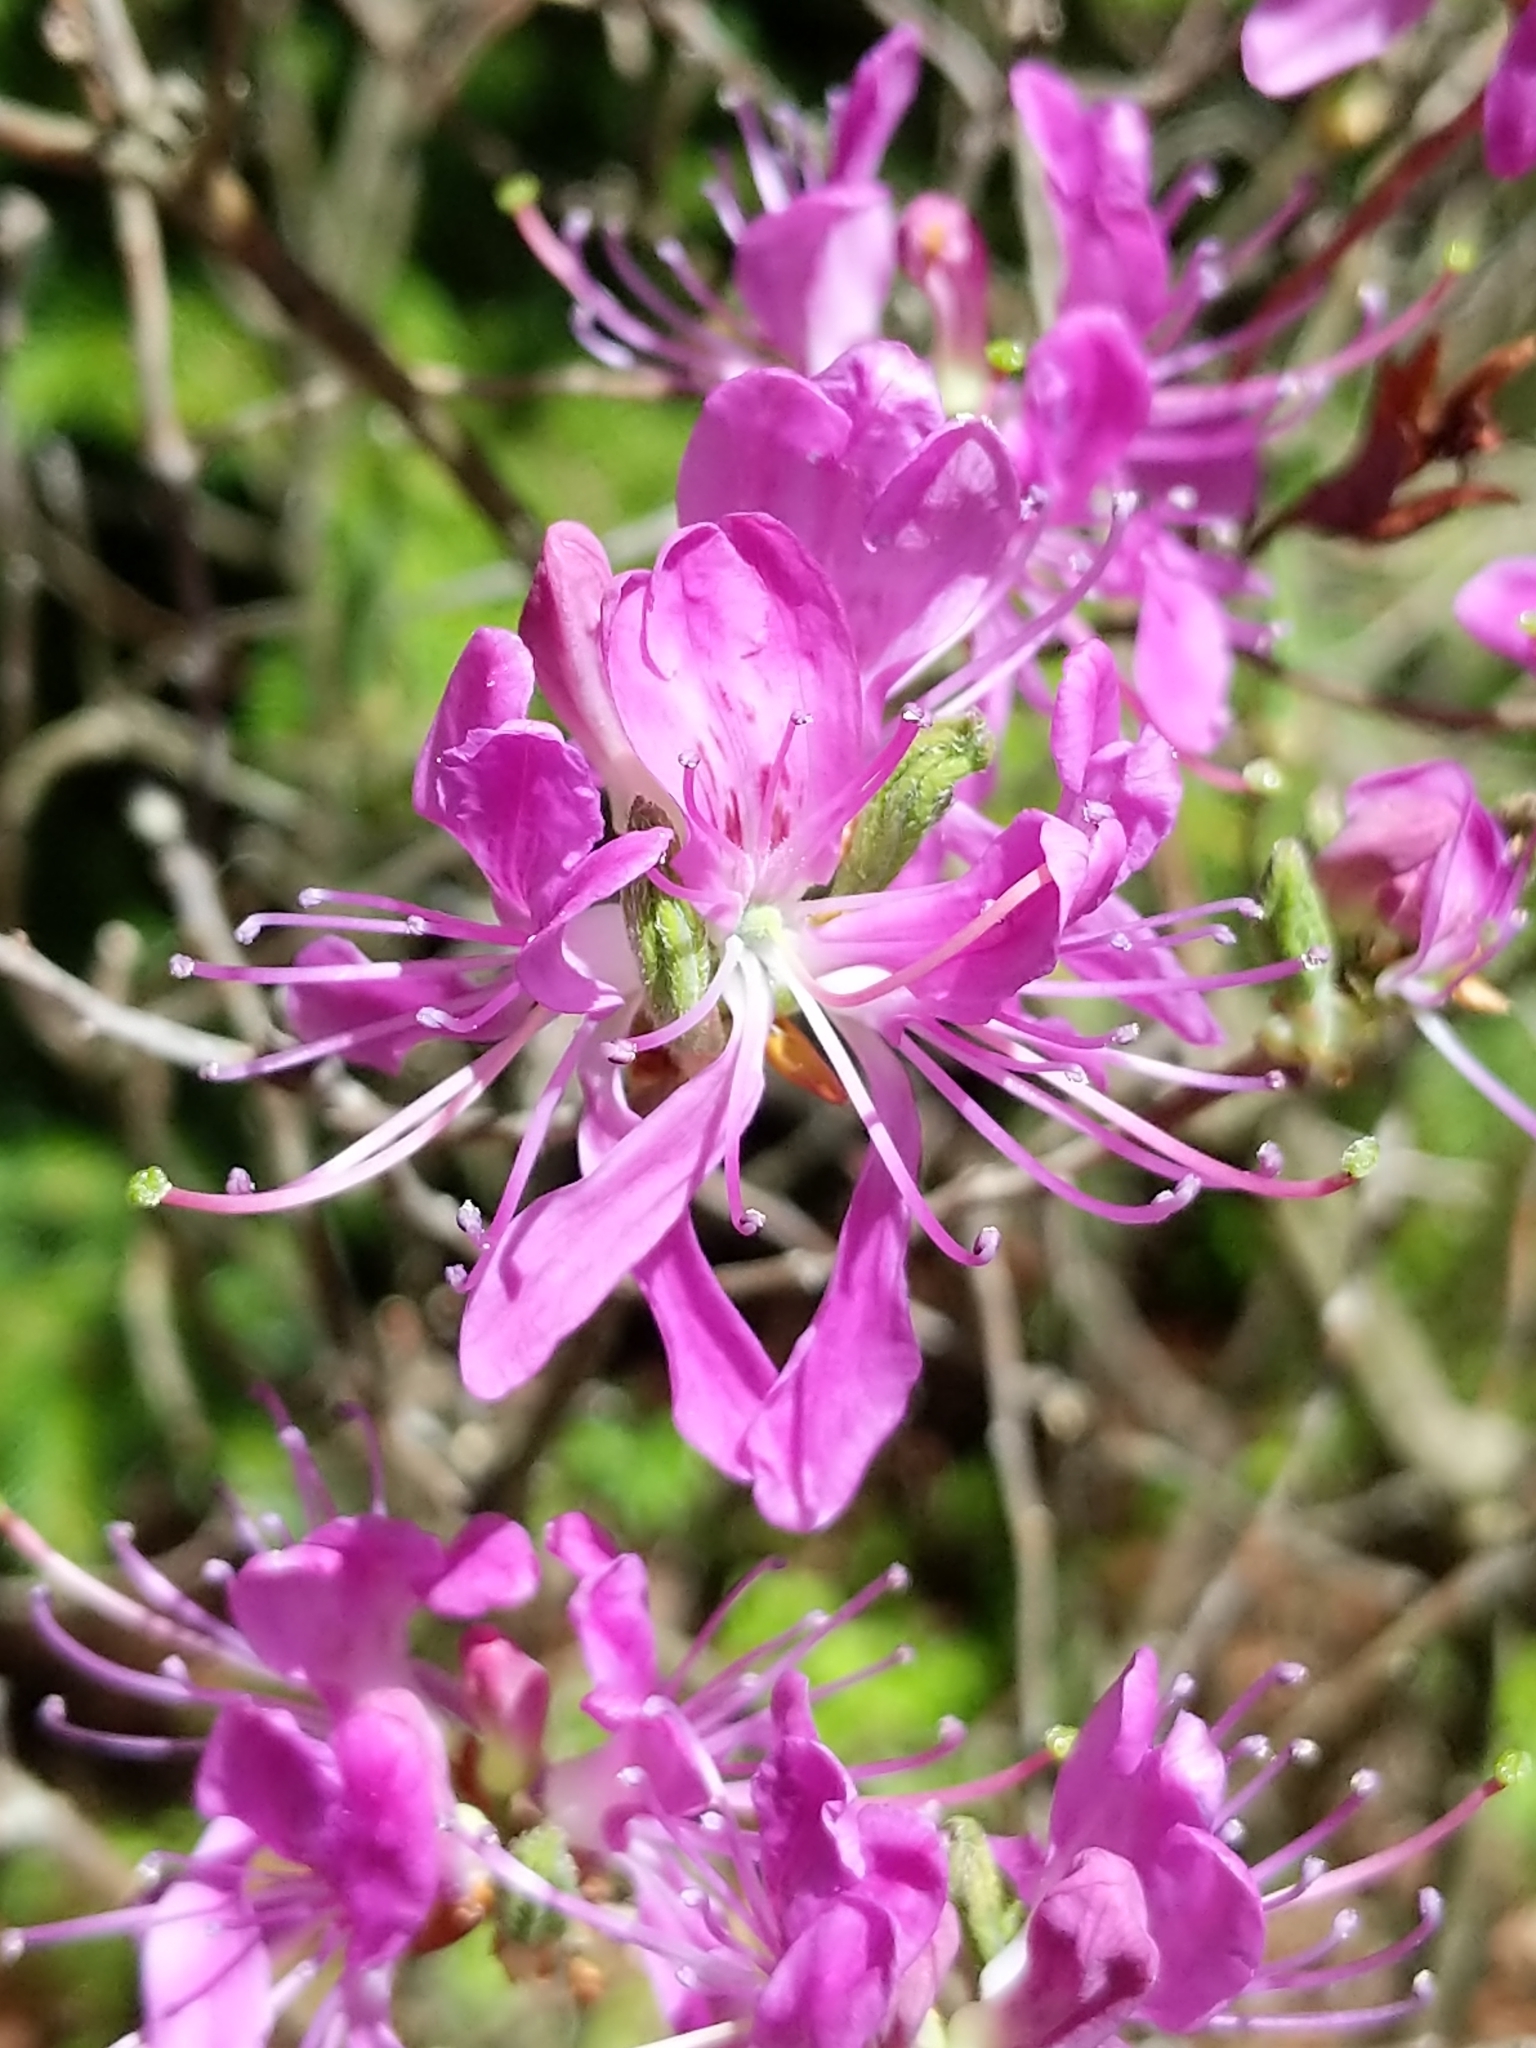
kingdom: Plantae
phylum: Tracheophyta
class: Magnoliopsida
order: Ericales
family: Ericaceae
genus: Rhododendron
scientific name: Rhododendron canadense
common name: Rhodora
